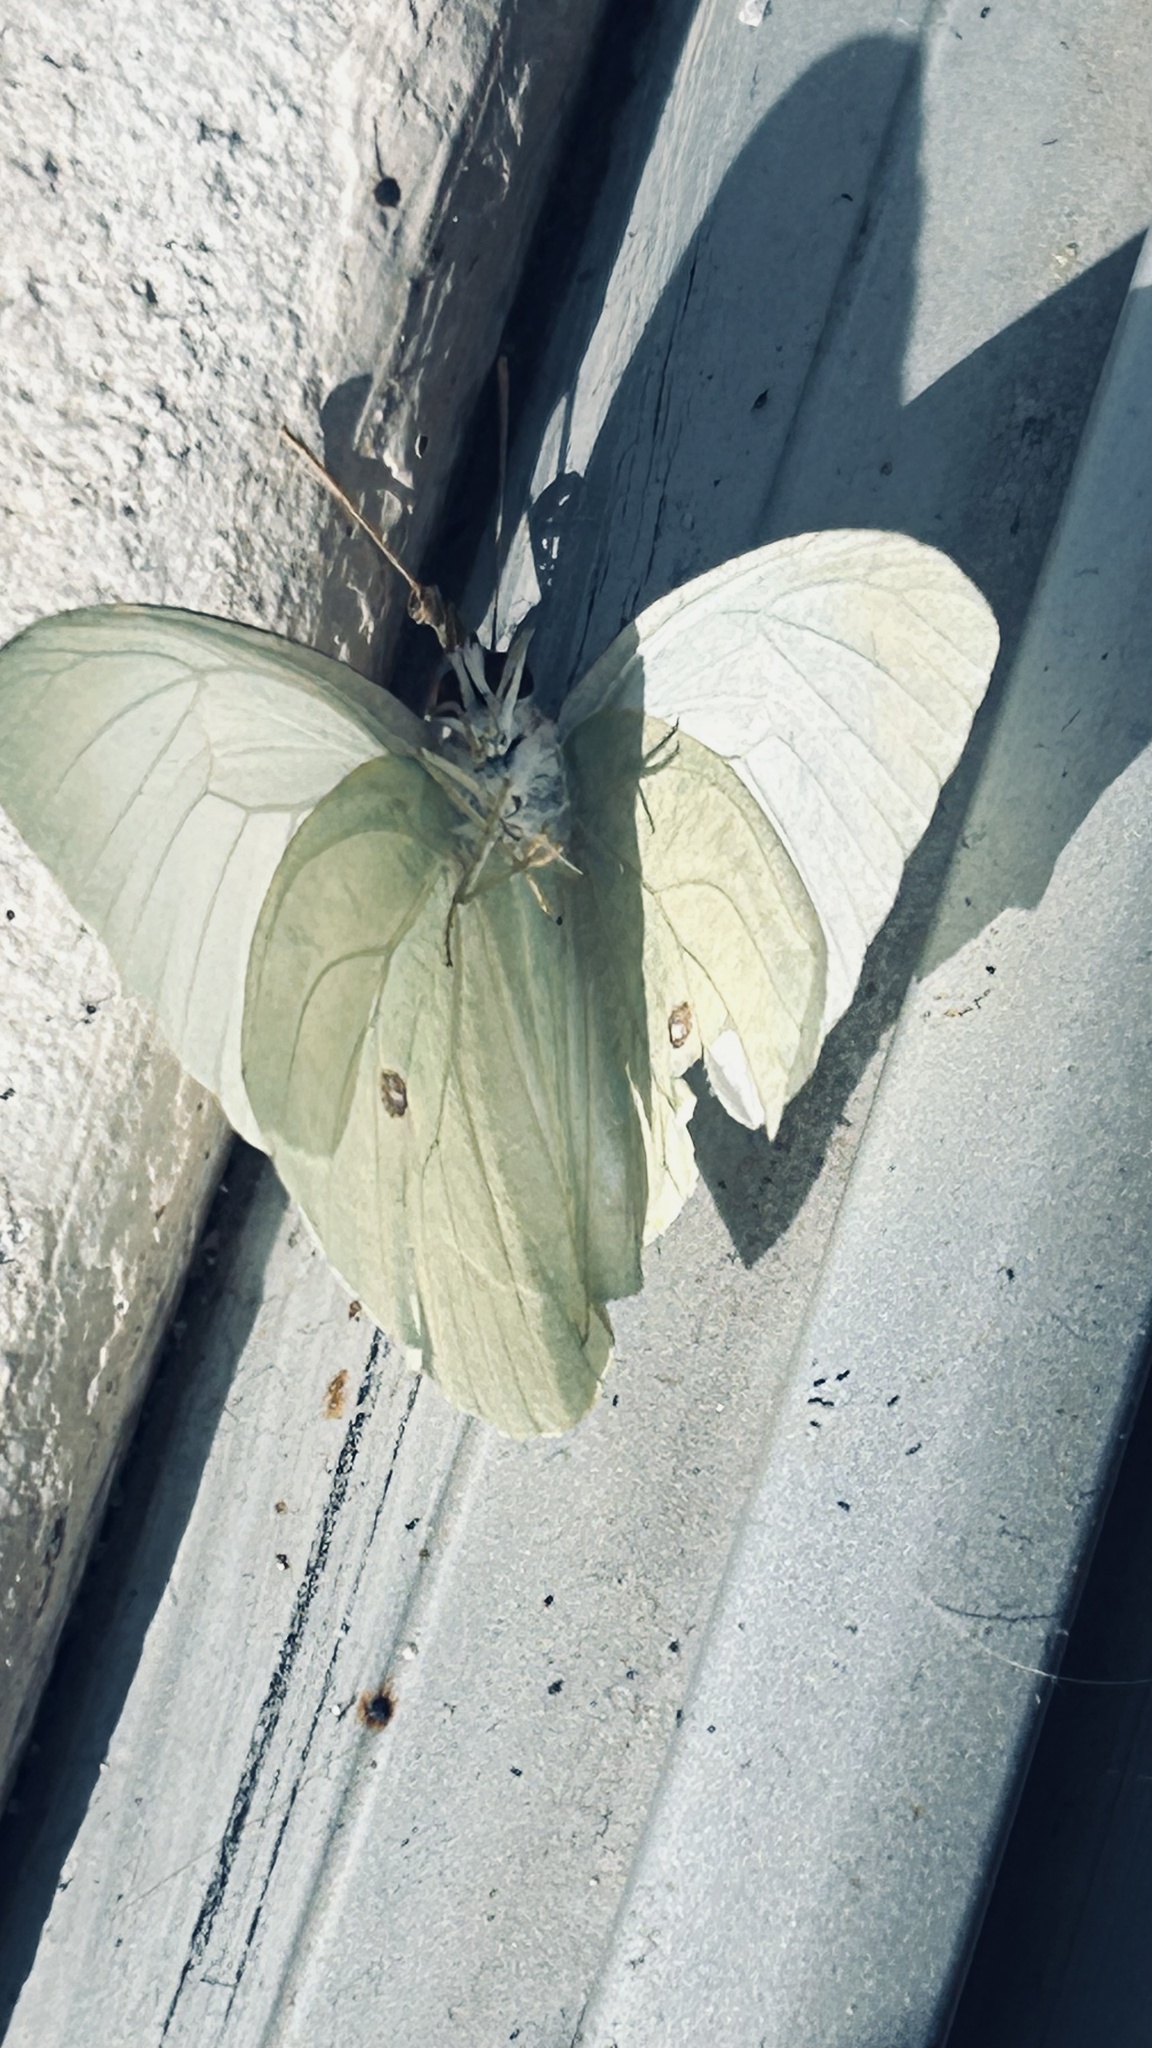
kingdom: Animalia
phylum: Arthropoda
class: Insecta
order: Lepidoptera
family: Pieridae
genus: Catopsilia
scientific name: Catopsilia florella
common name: African migrant
